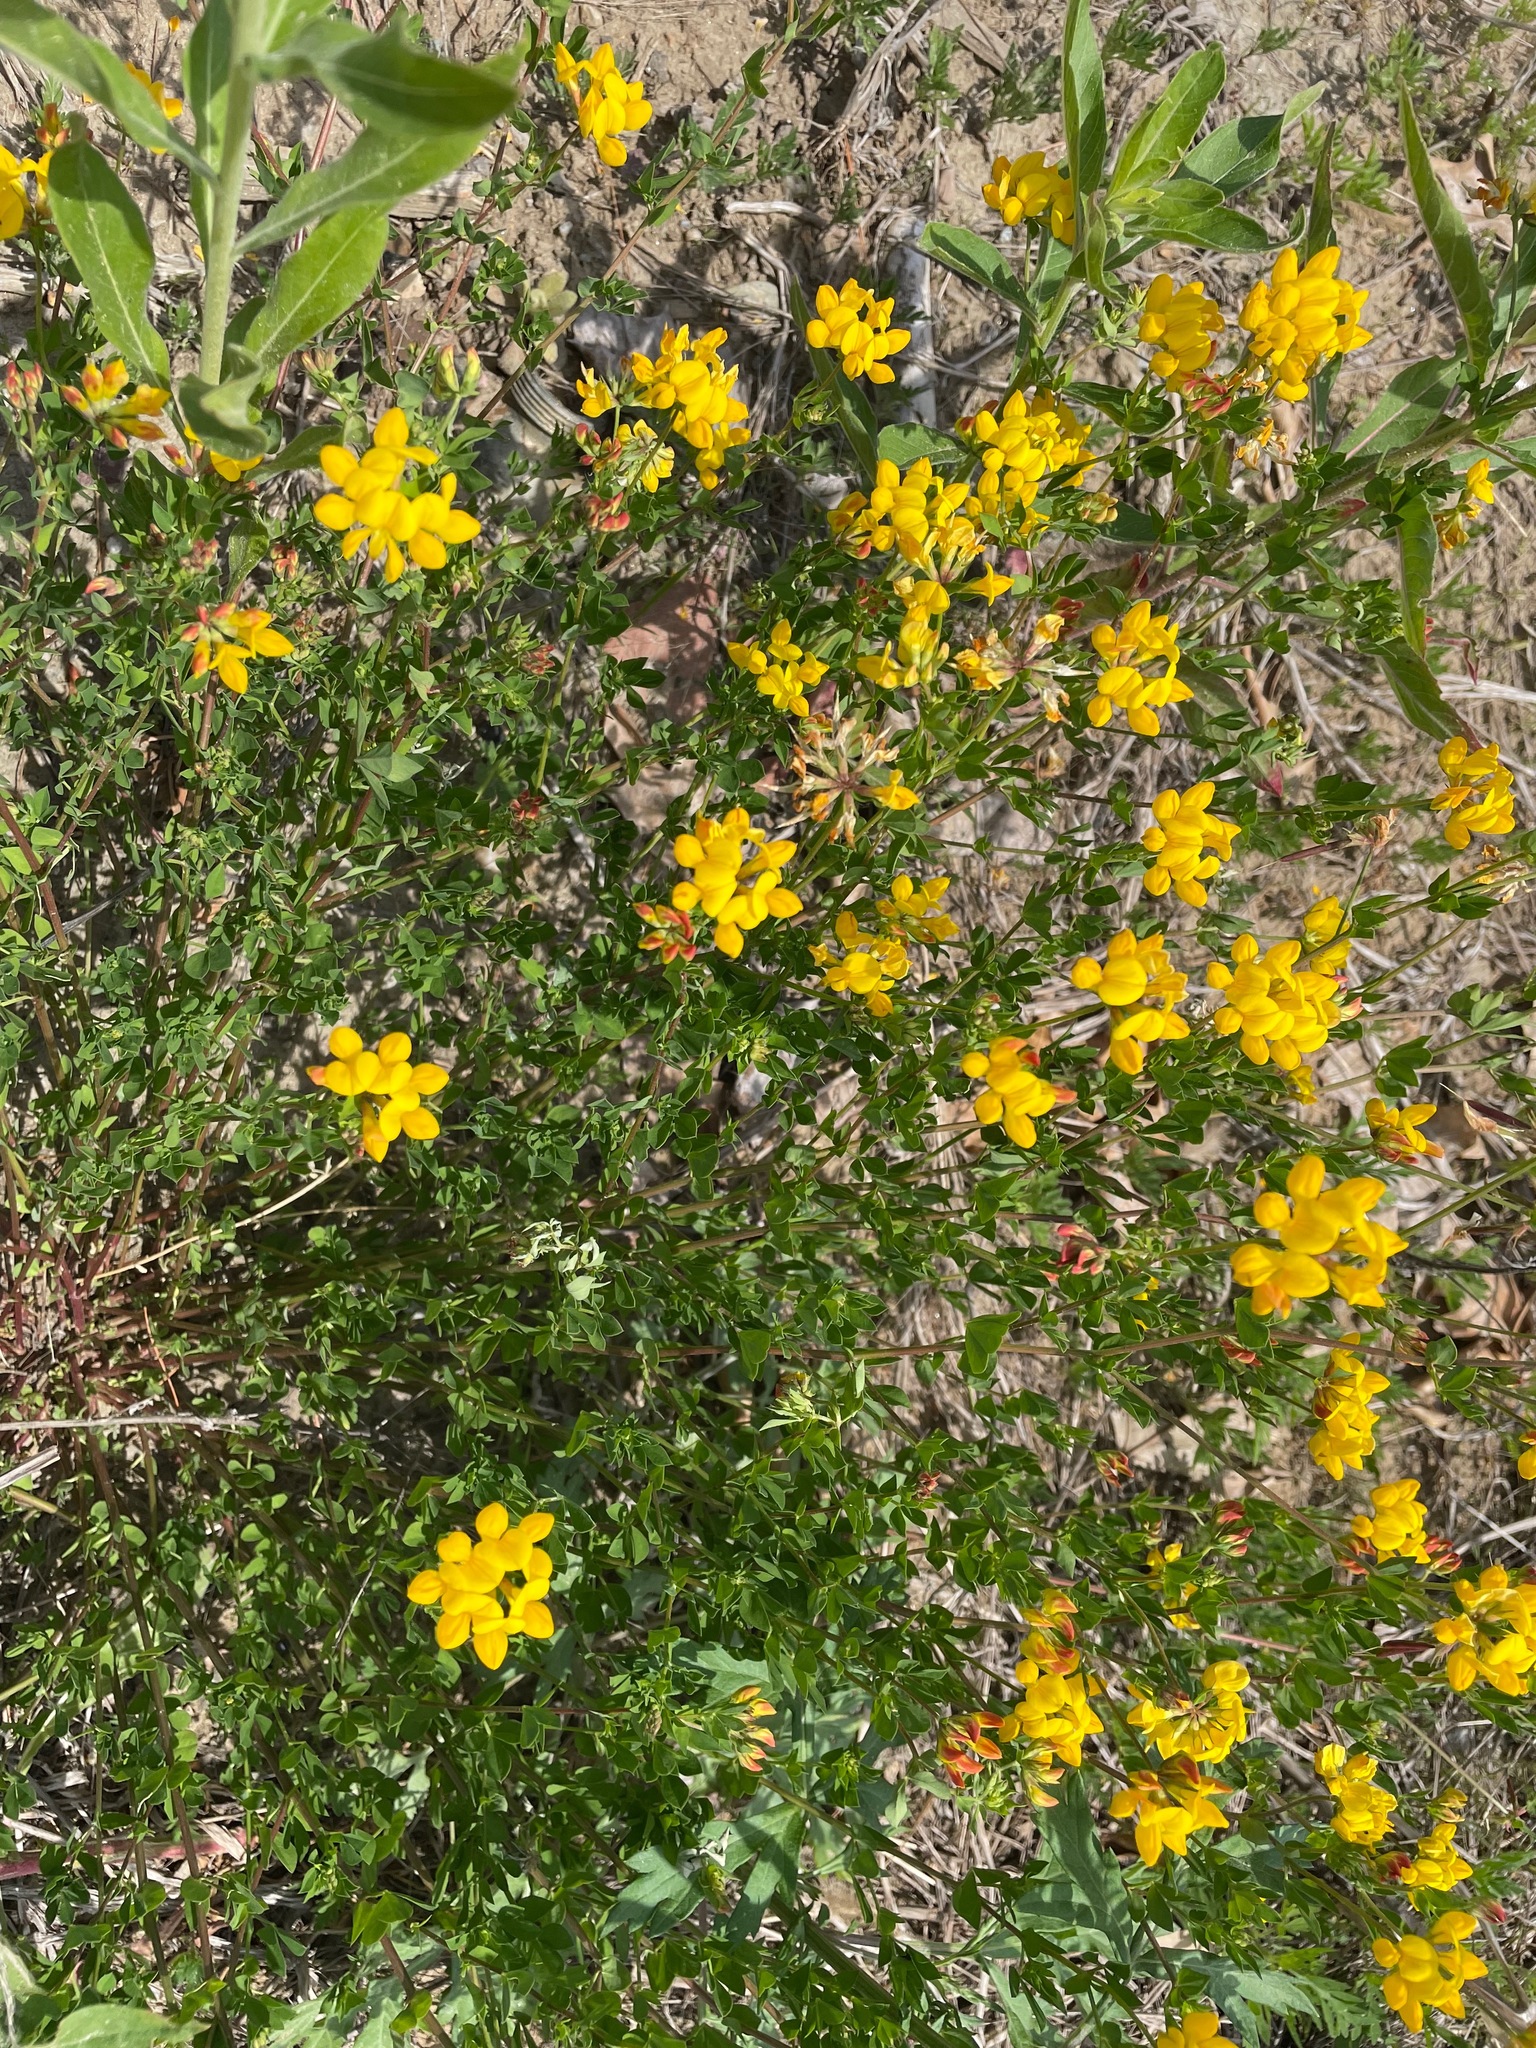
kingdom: Plantae
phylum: Tracheophyta
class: Magnoliopsida
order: Fabales
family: Fabaceae
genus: Lotus
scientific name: Lotus corniculatus
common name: Common bird's-foot-trefoil
